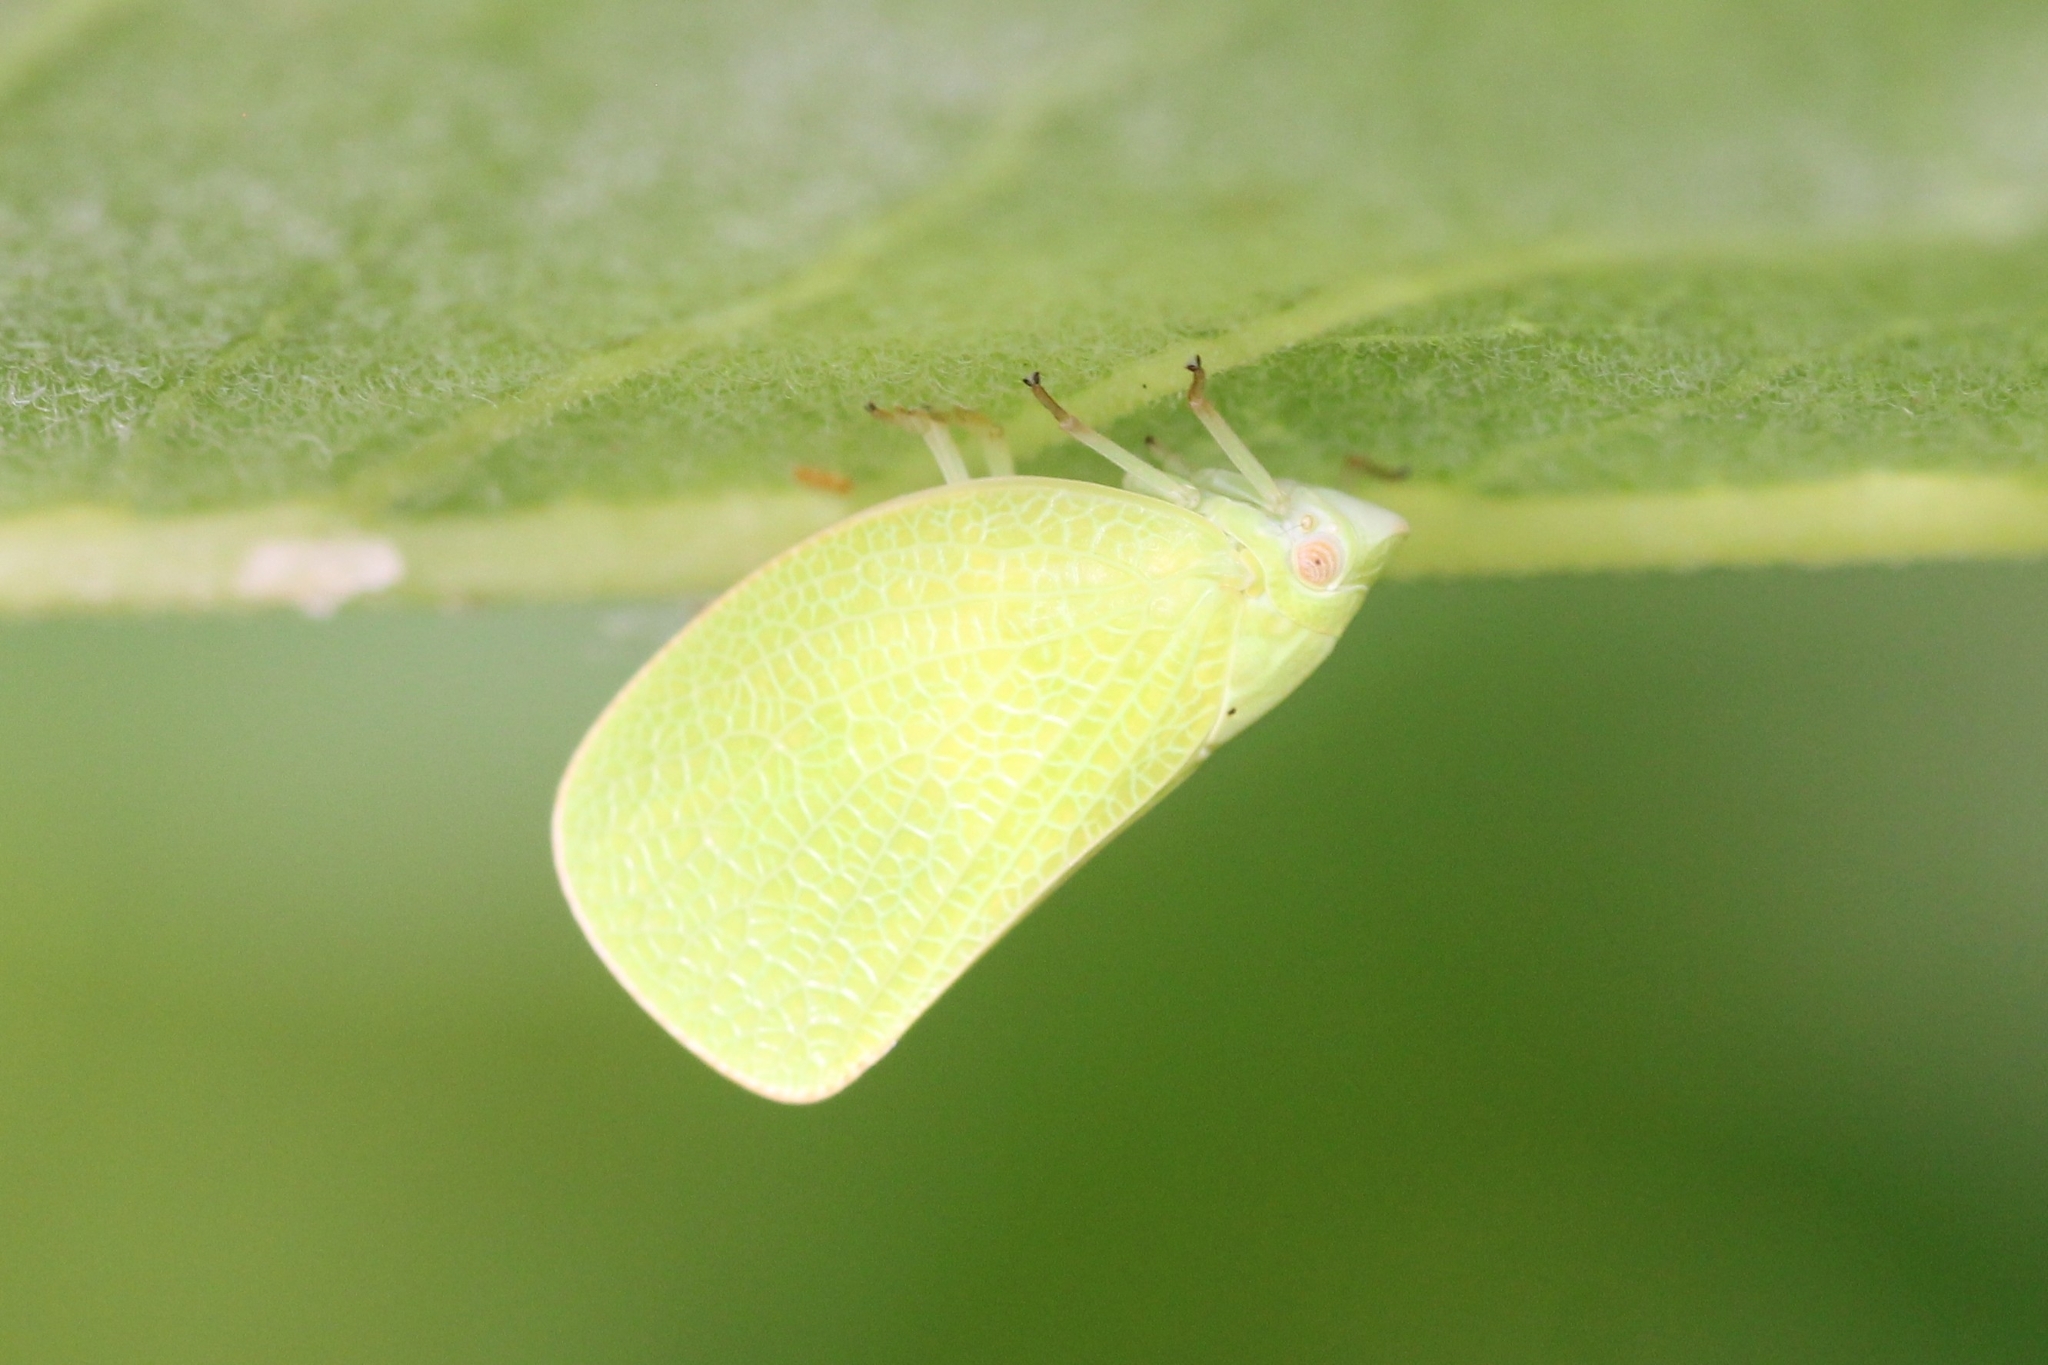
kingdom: Animalia
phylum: Arthropoda
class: Insecta
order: Hemiptera
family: Acanaloniidae
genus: Acanalonia
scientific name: Acanalonia conica
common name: Green cone-headed planthopper
